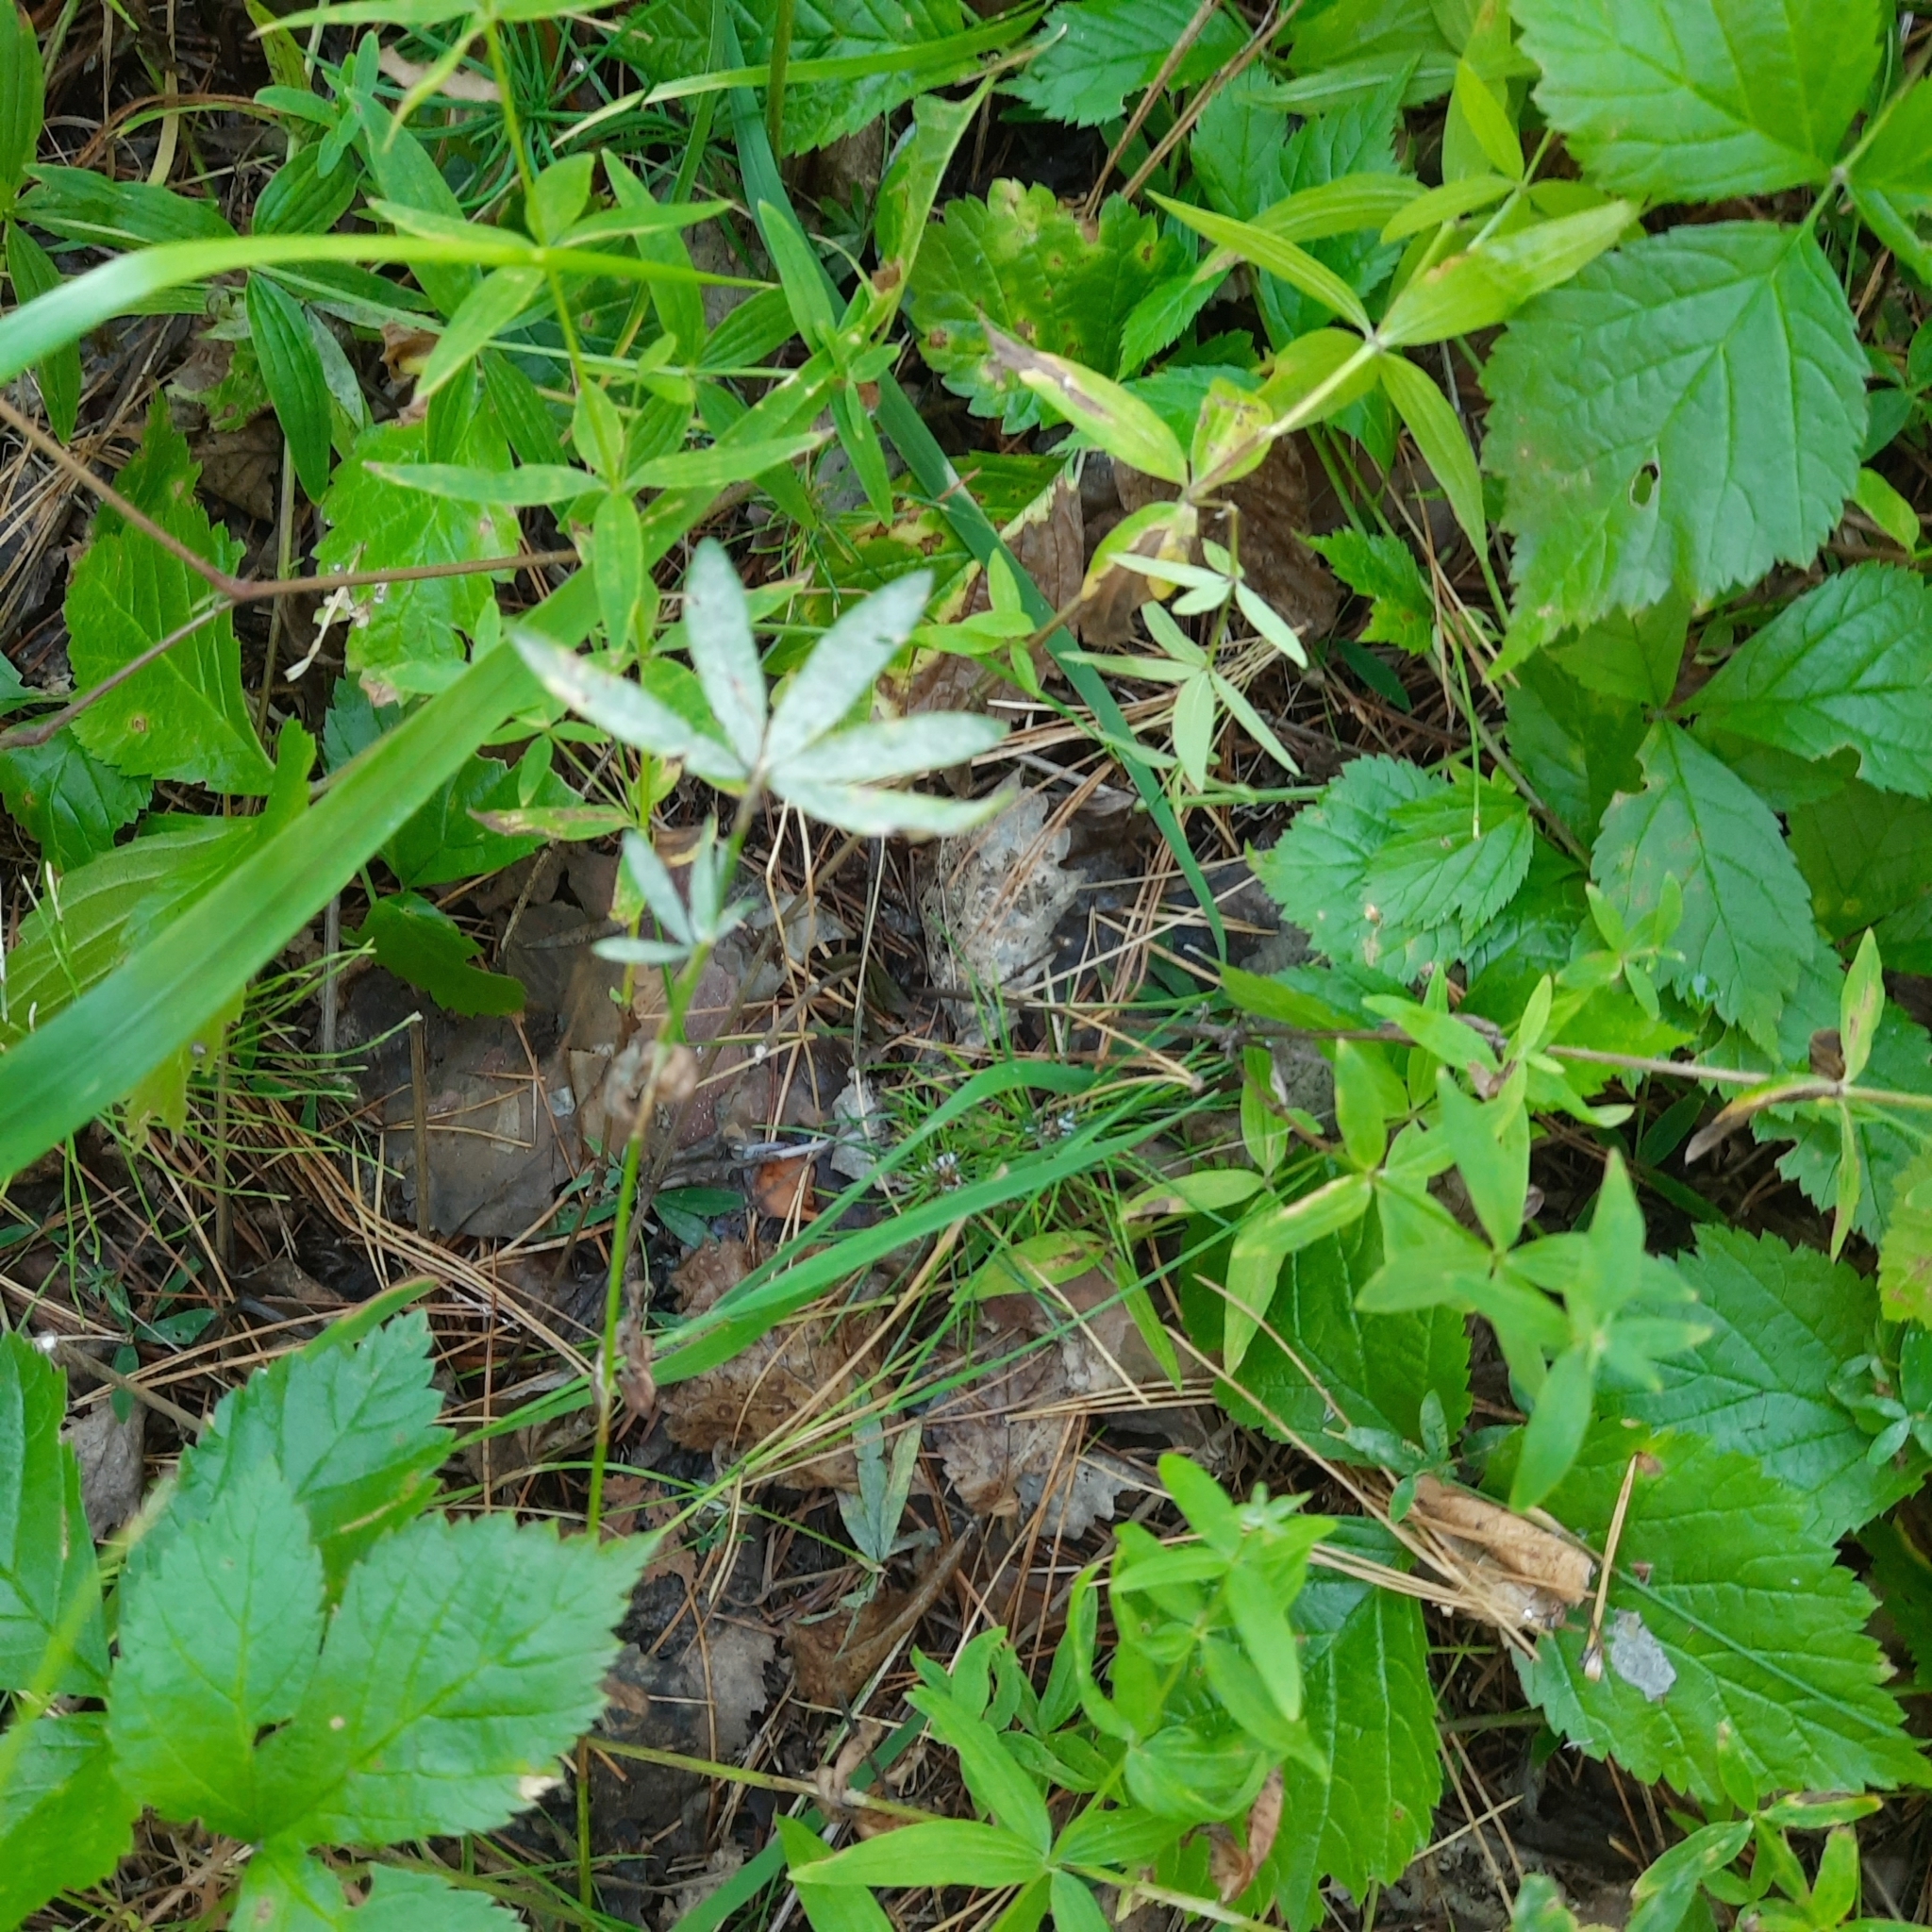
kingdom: Plantae
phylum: Tracheophyta
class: Magnoliopsida
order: Fabales
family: Fabaceae
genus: Trifolium
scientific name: Trifolium lupinaster
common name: Lupine clover
